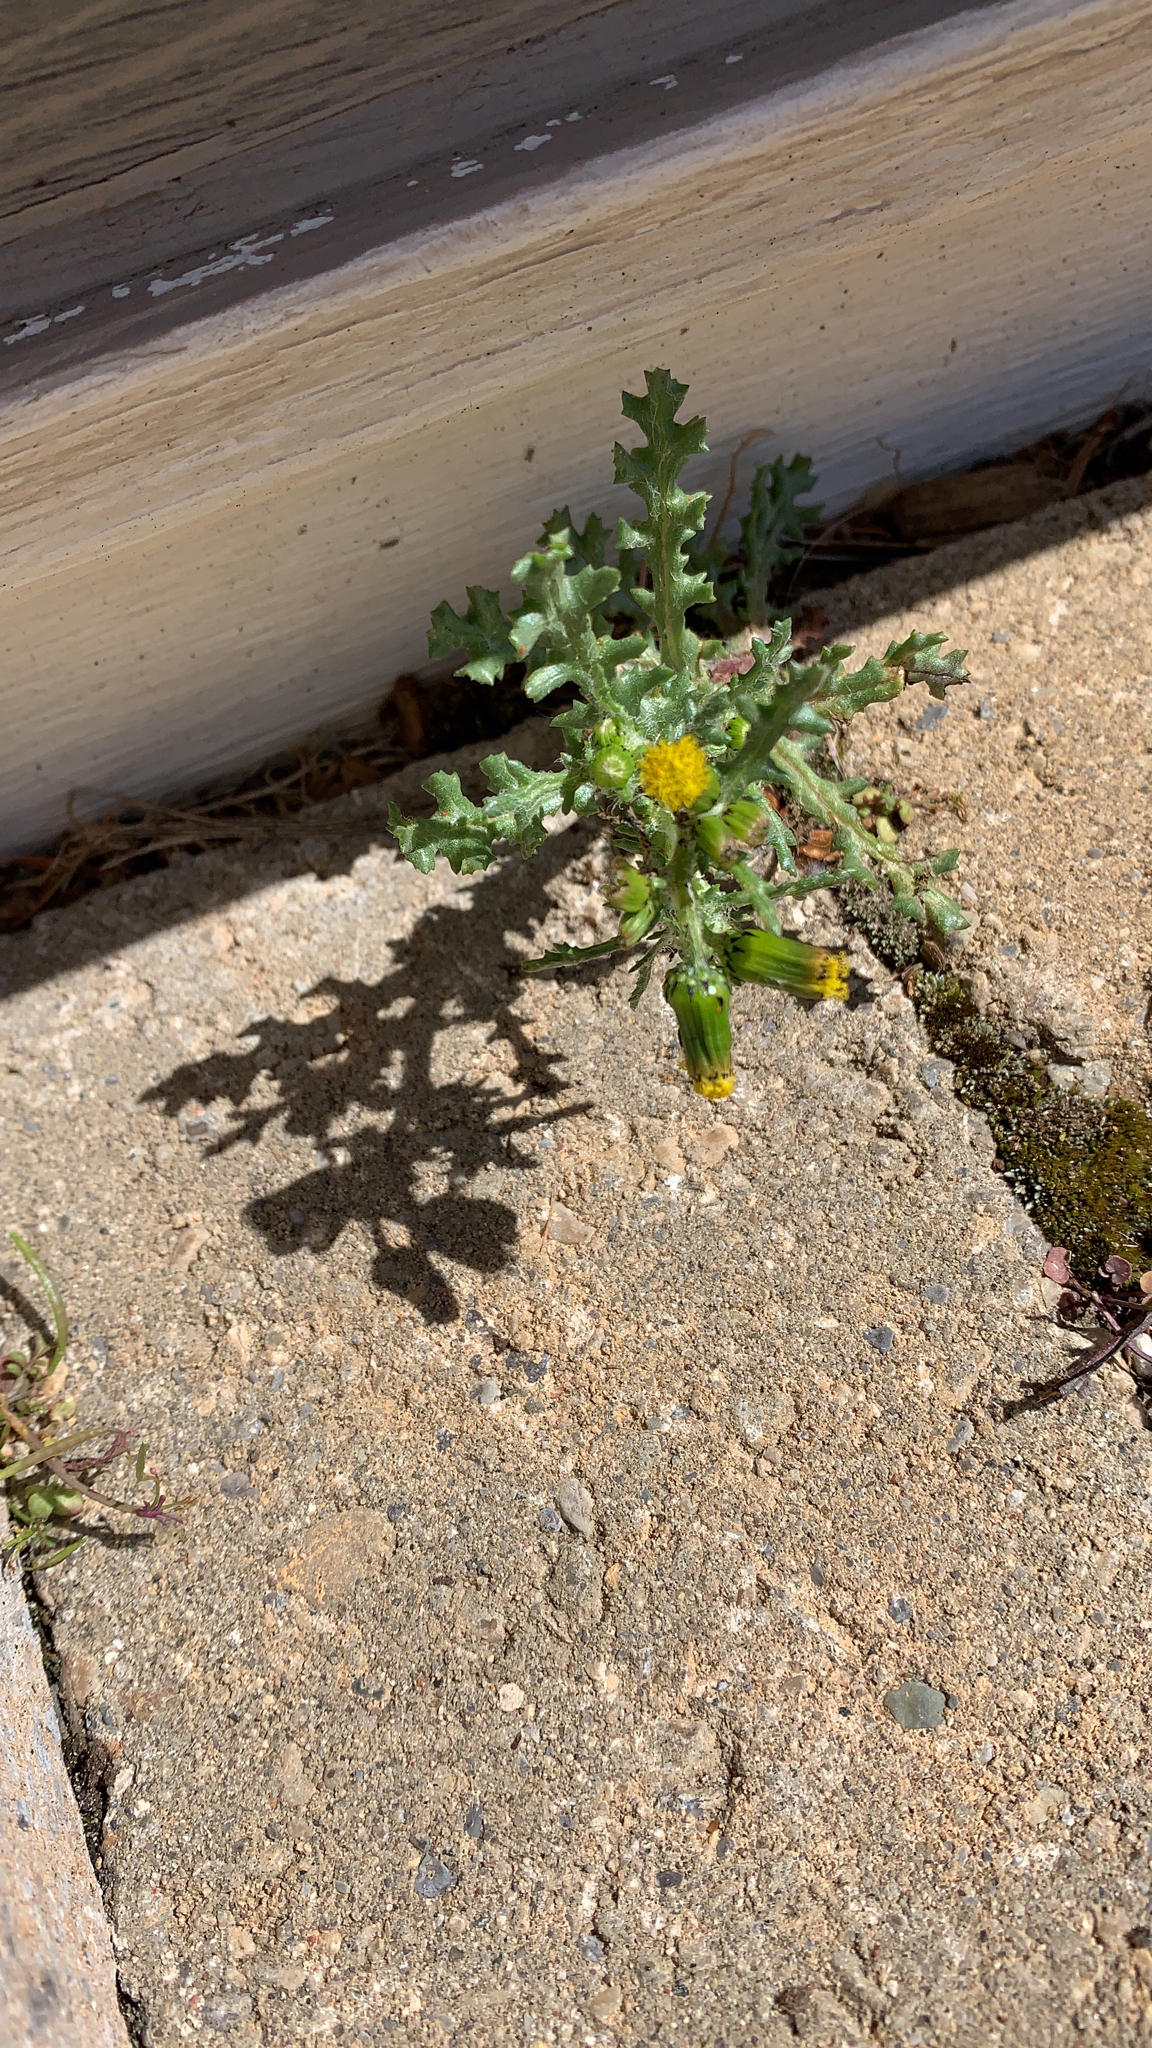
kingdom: Plantae
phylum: Tracheophyta
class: Magnoliopsida
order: Asterales
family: Asteraceae
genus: Senecio
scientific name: Senecio vulgaris
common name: Old-man-in-the-spring
